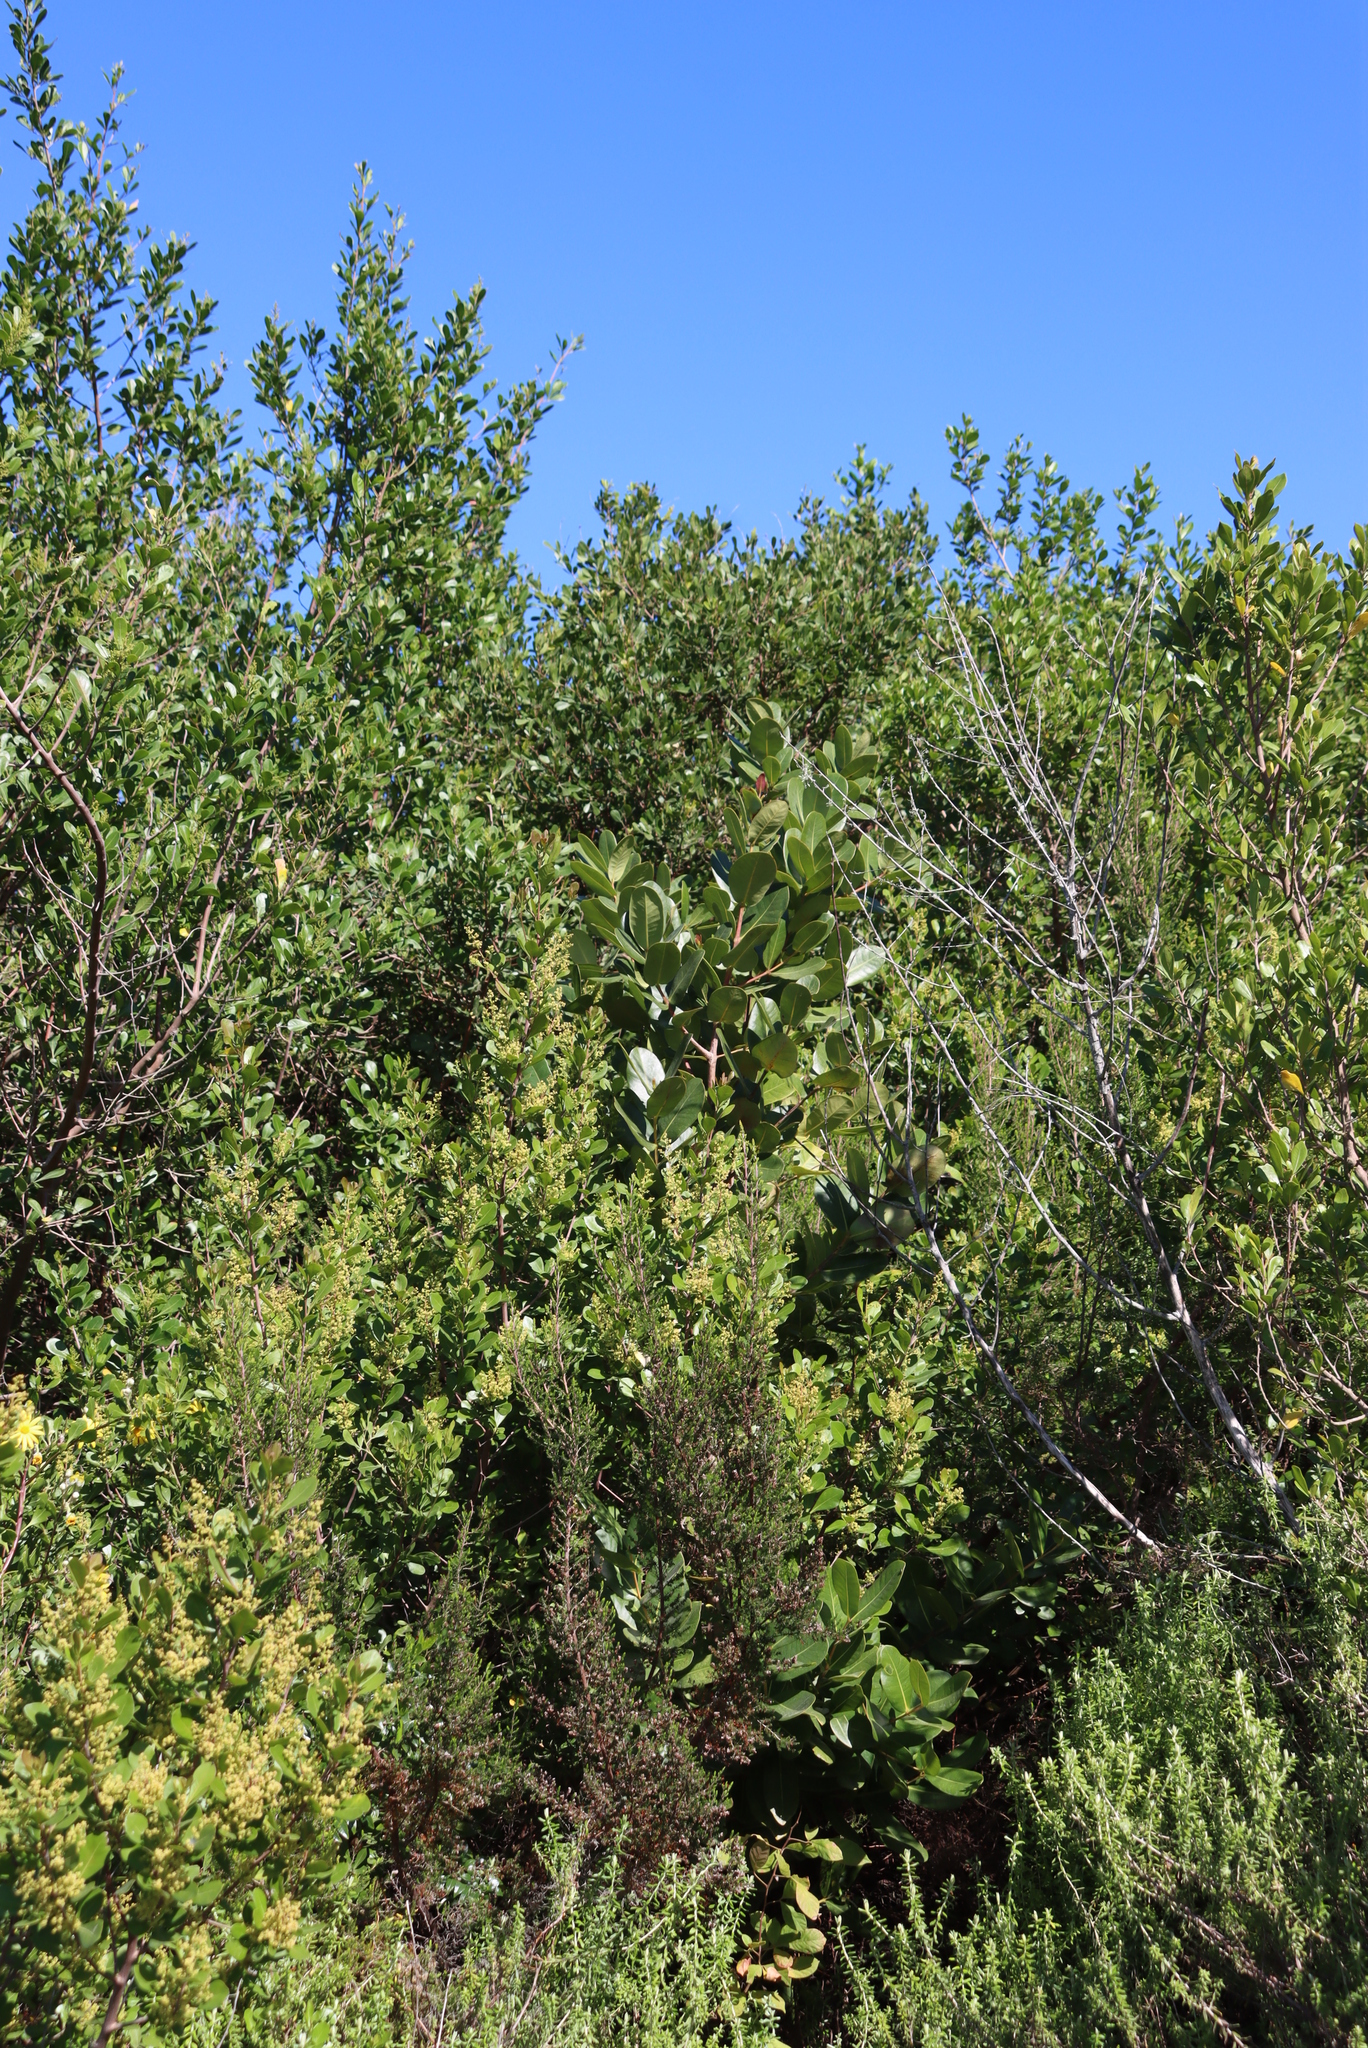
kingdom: Plantae
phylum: Tracheophyta
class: Magnoliopsida
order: Myrtales
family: Myrtaceae
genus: Syzygium
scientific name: Syzygium cordatum
